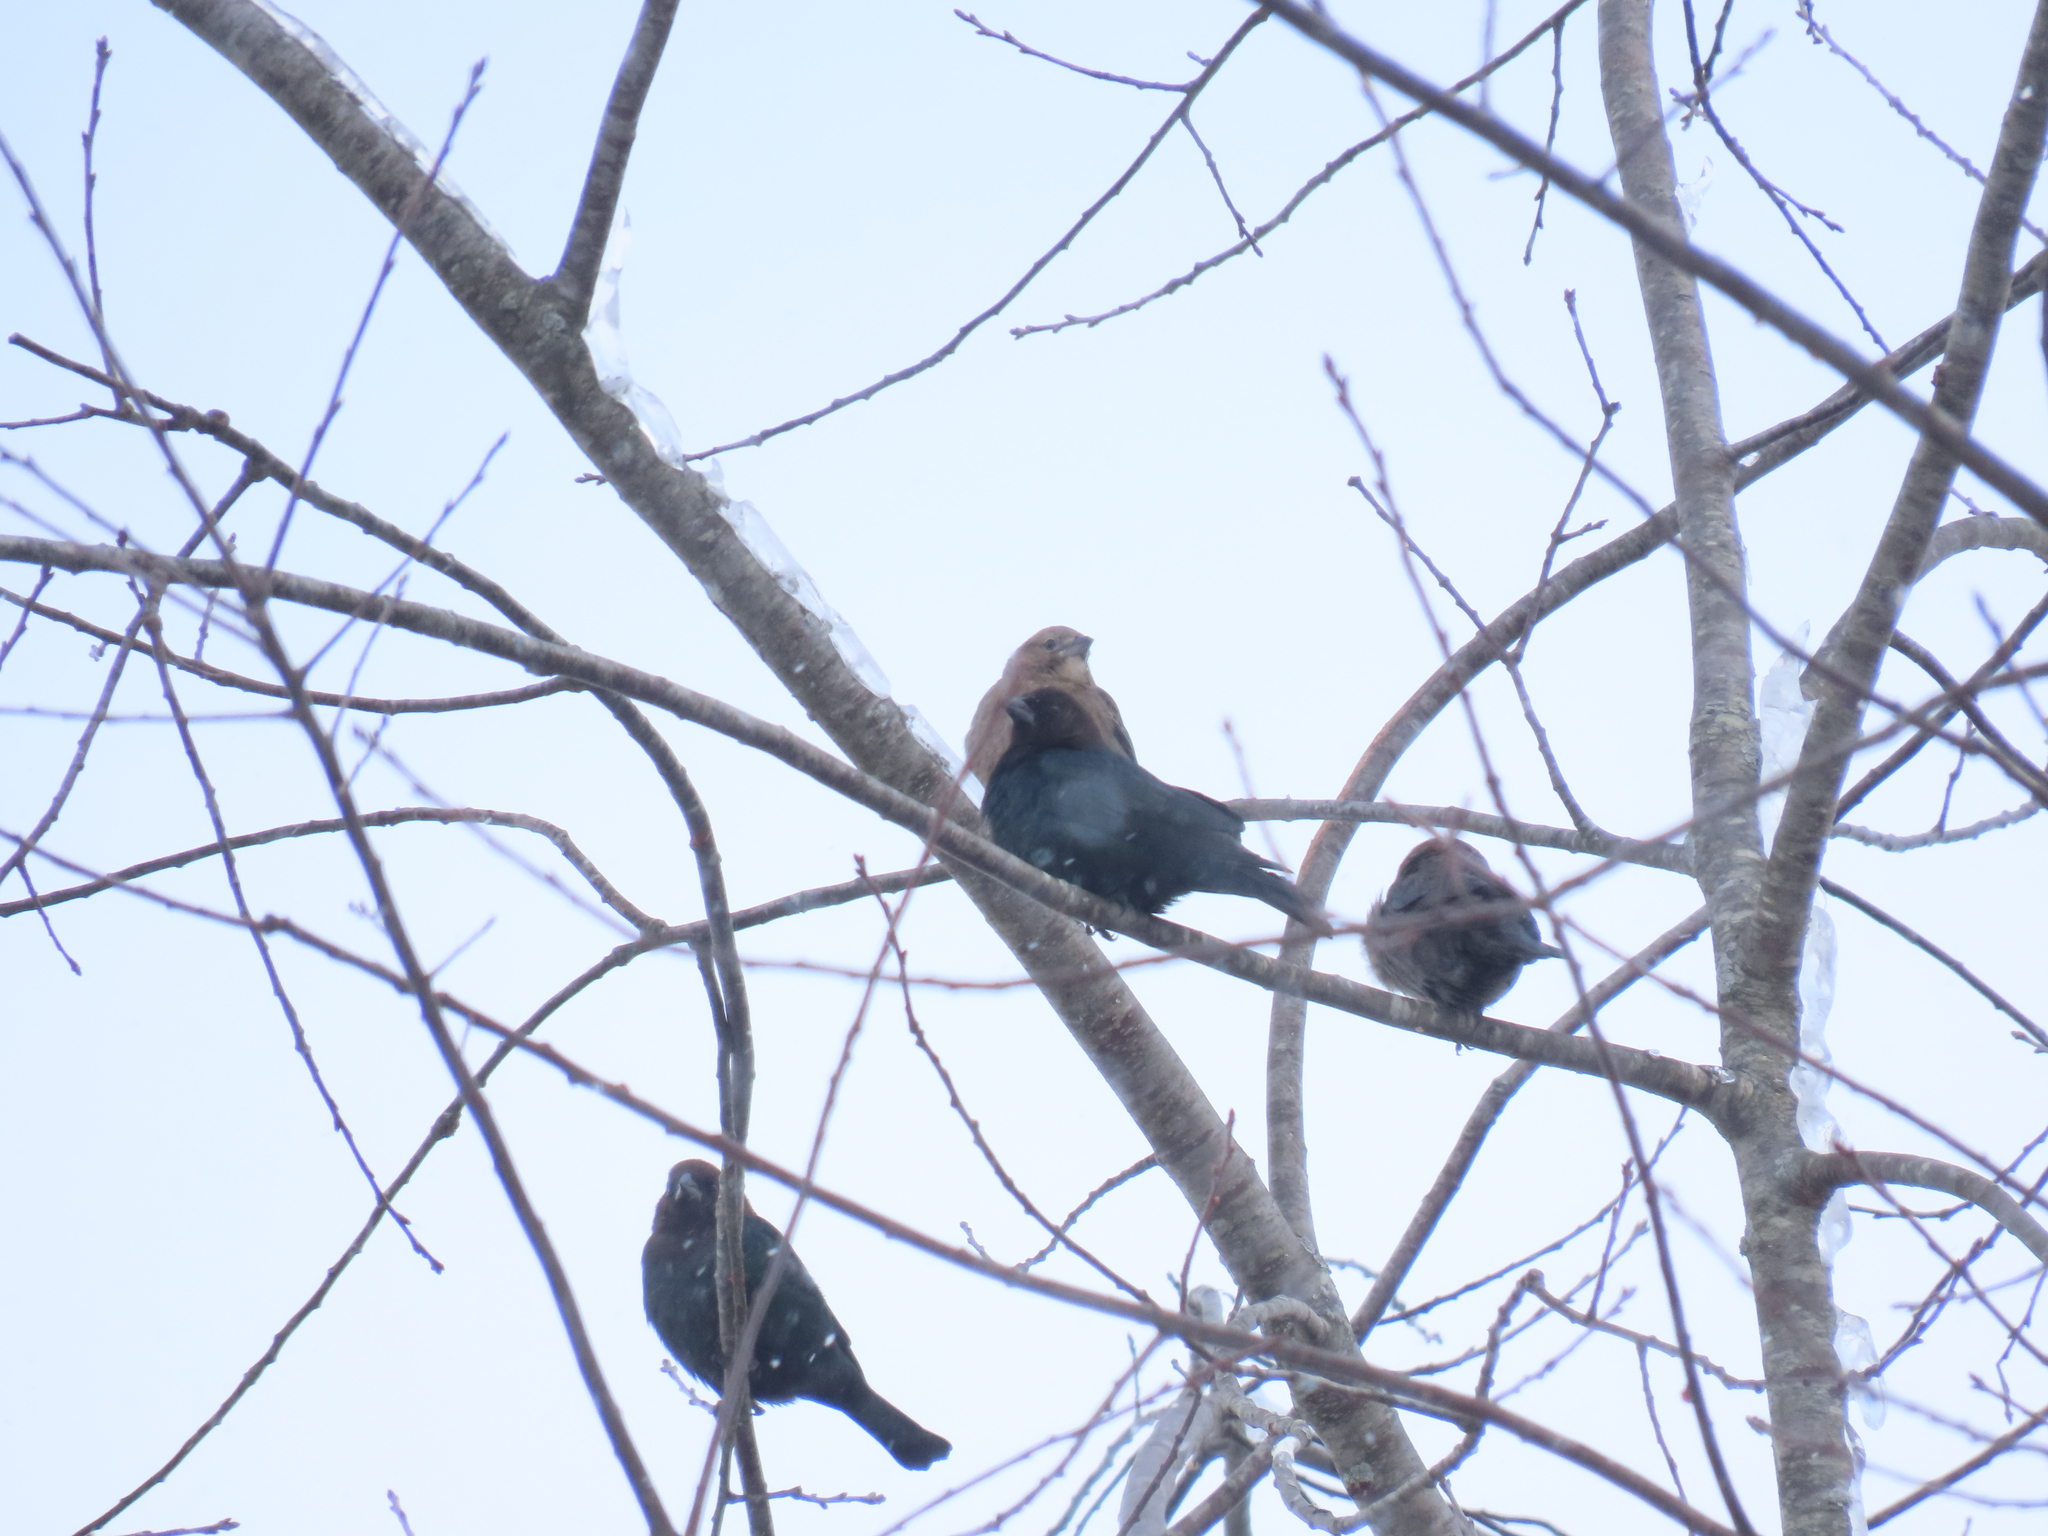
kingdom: Animalia
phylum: Chordata
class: Aves
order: Passeriformes
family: Icteridae
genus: Molothrus
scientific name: Molothrus ater
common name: Brown-headed cowbird
